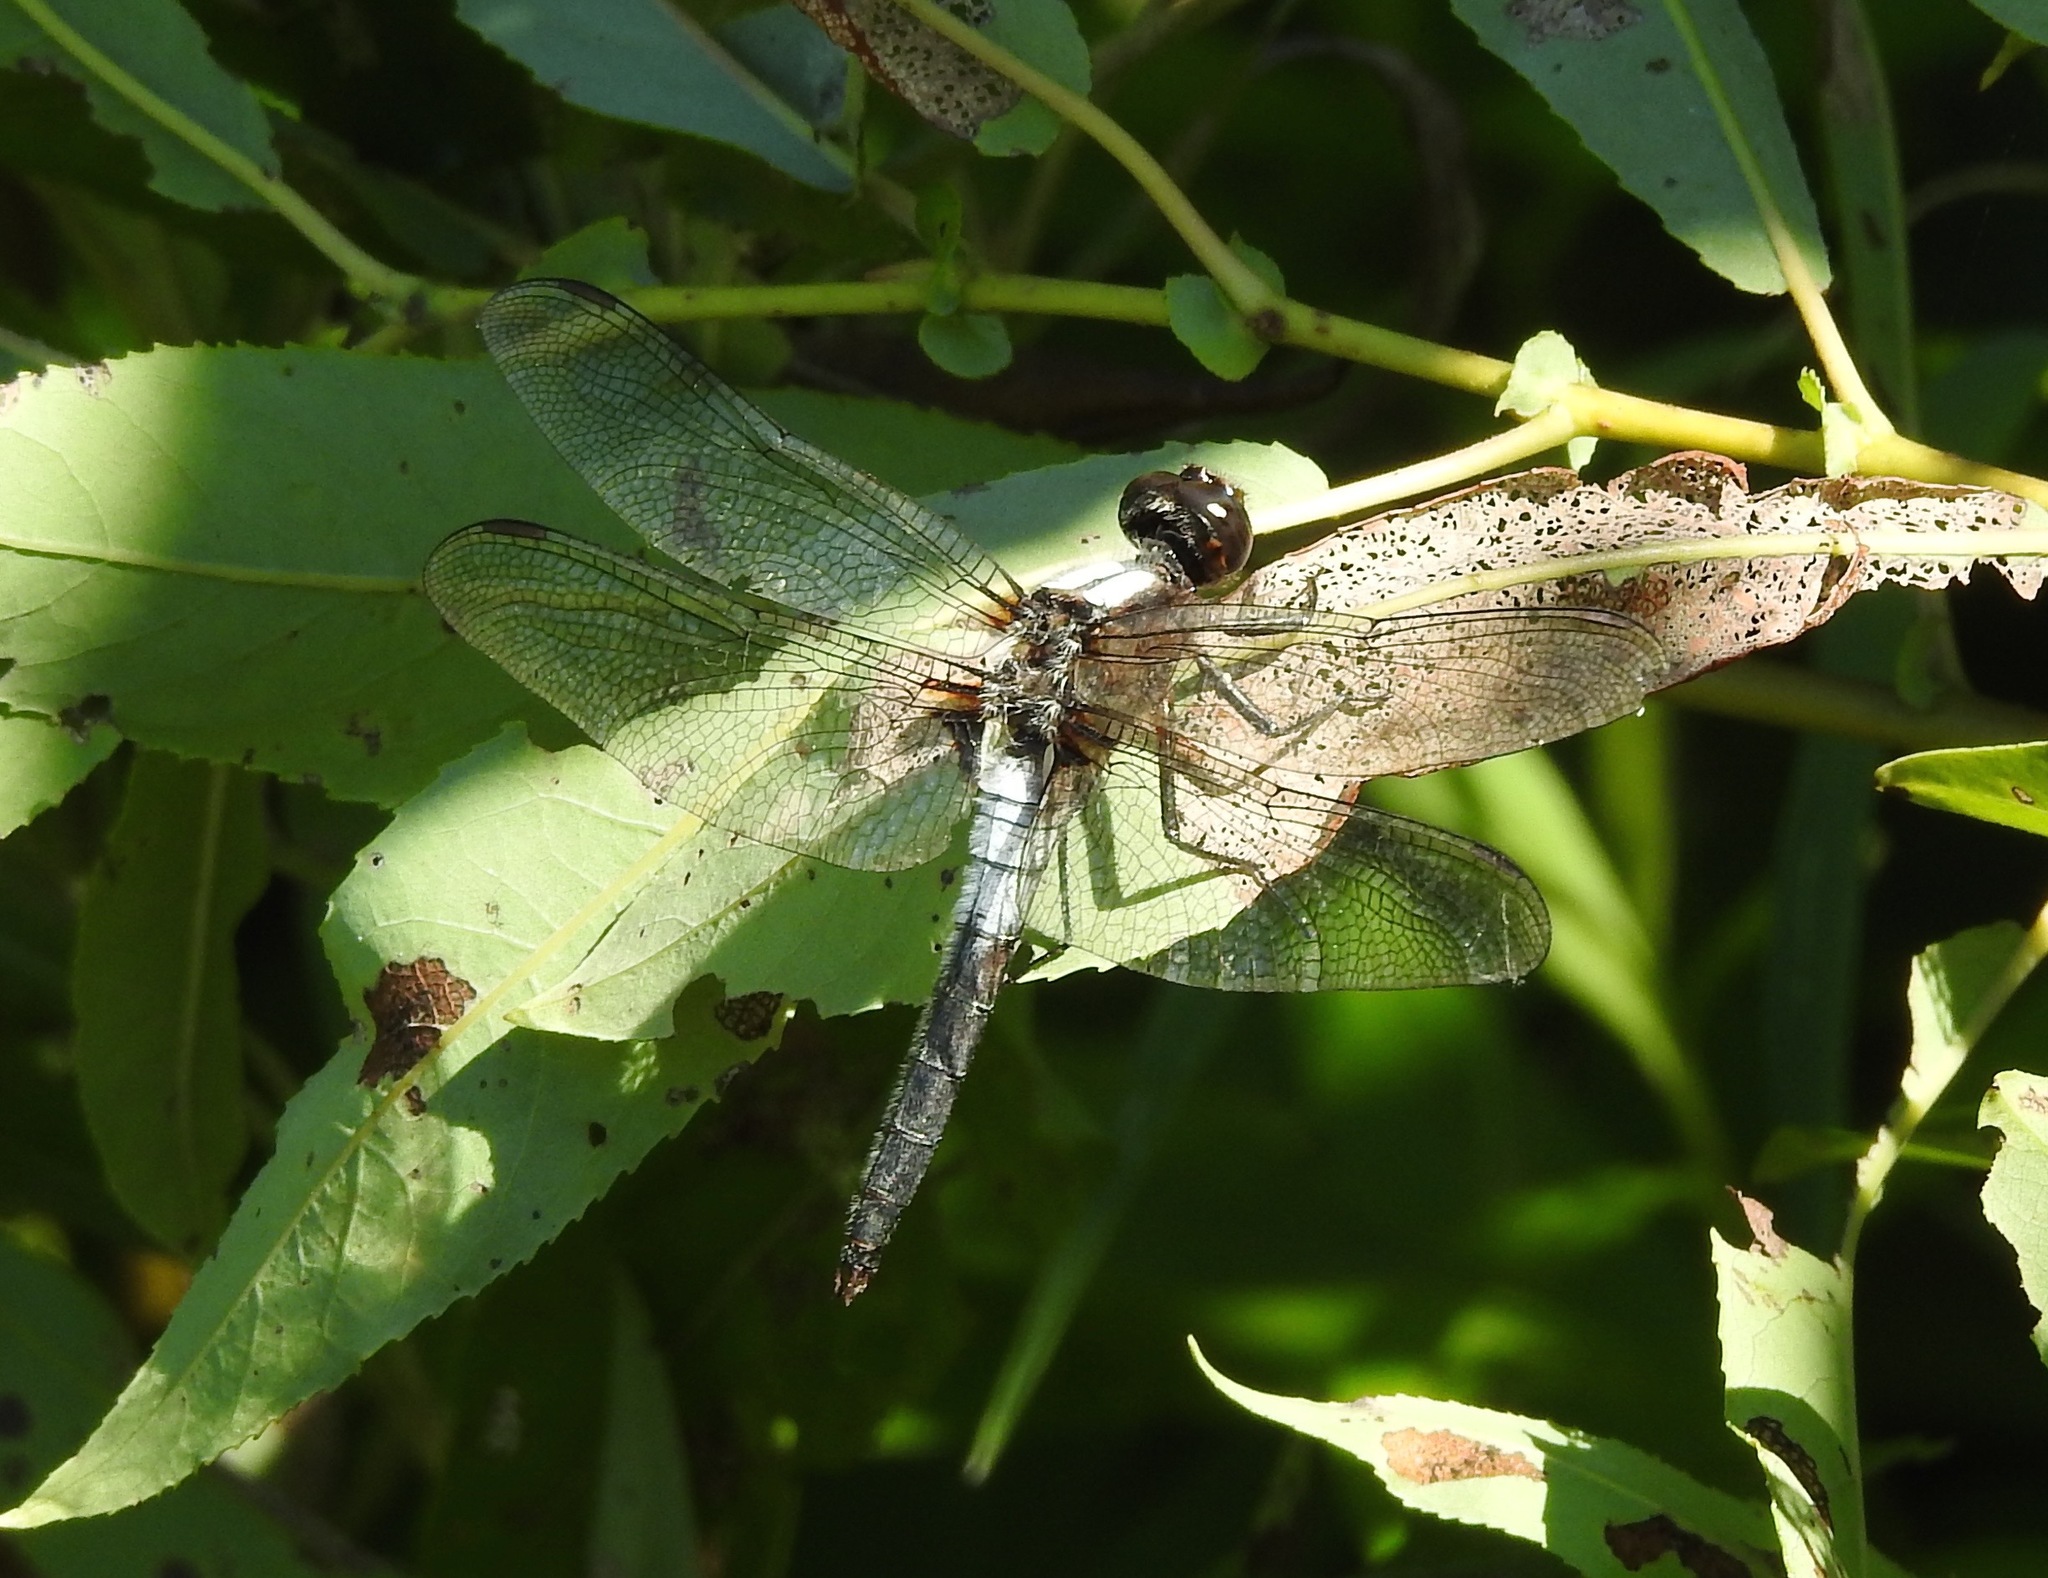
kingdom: Animalia
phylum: Arthropoda
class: Insecta
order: Odonata
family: Libellulidae
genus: Ladona
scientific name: Ladona julia
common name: Chalk-fronted corporal
